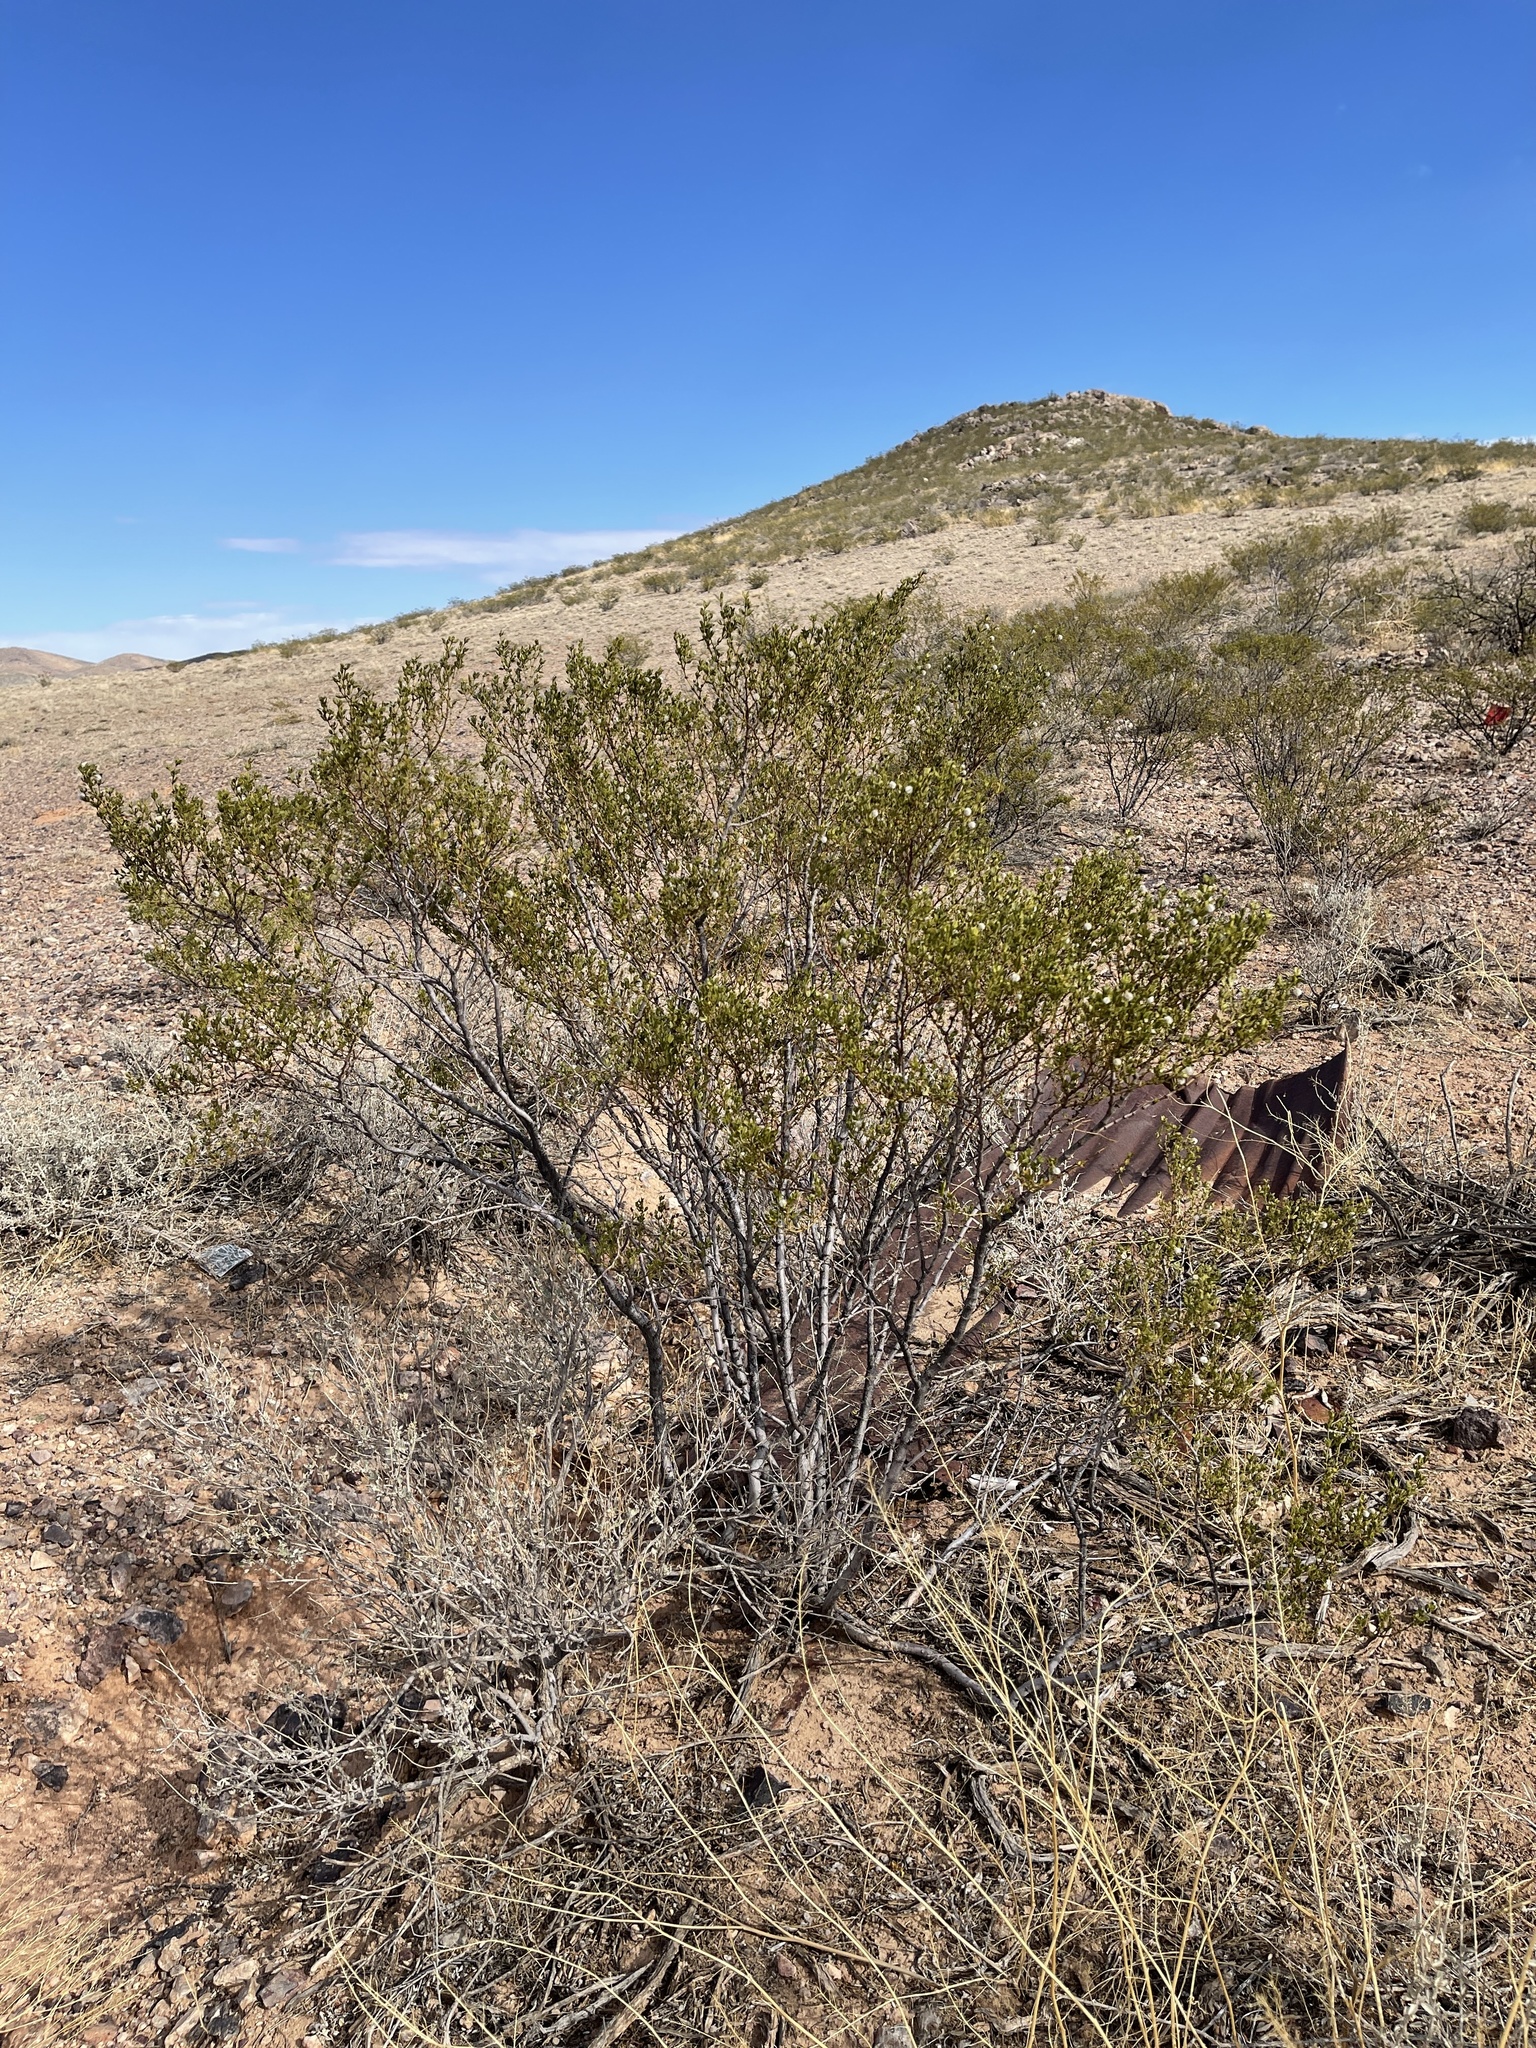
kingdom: Plantae
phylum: Tracheophyta
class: Magnoliopsida
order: Zygophyllales
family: Zygophyllaceae
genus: Larrea
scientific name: Larrea tridentata
